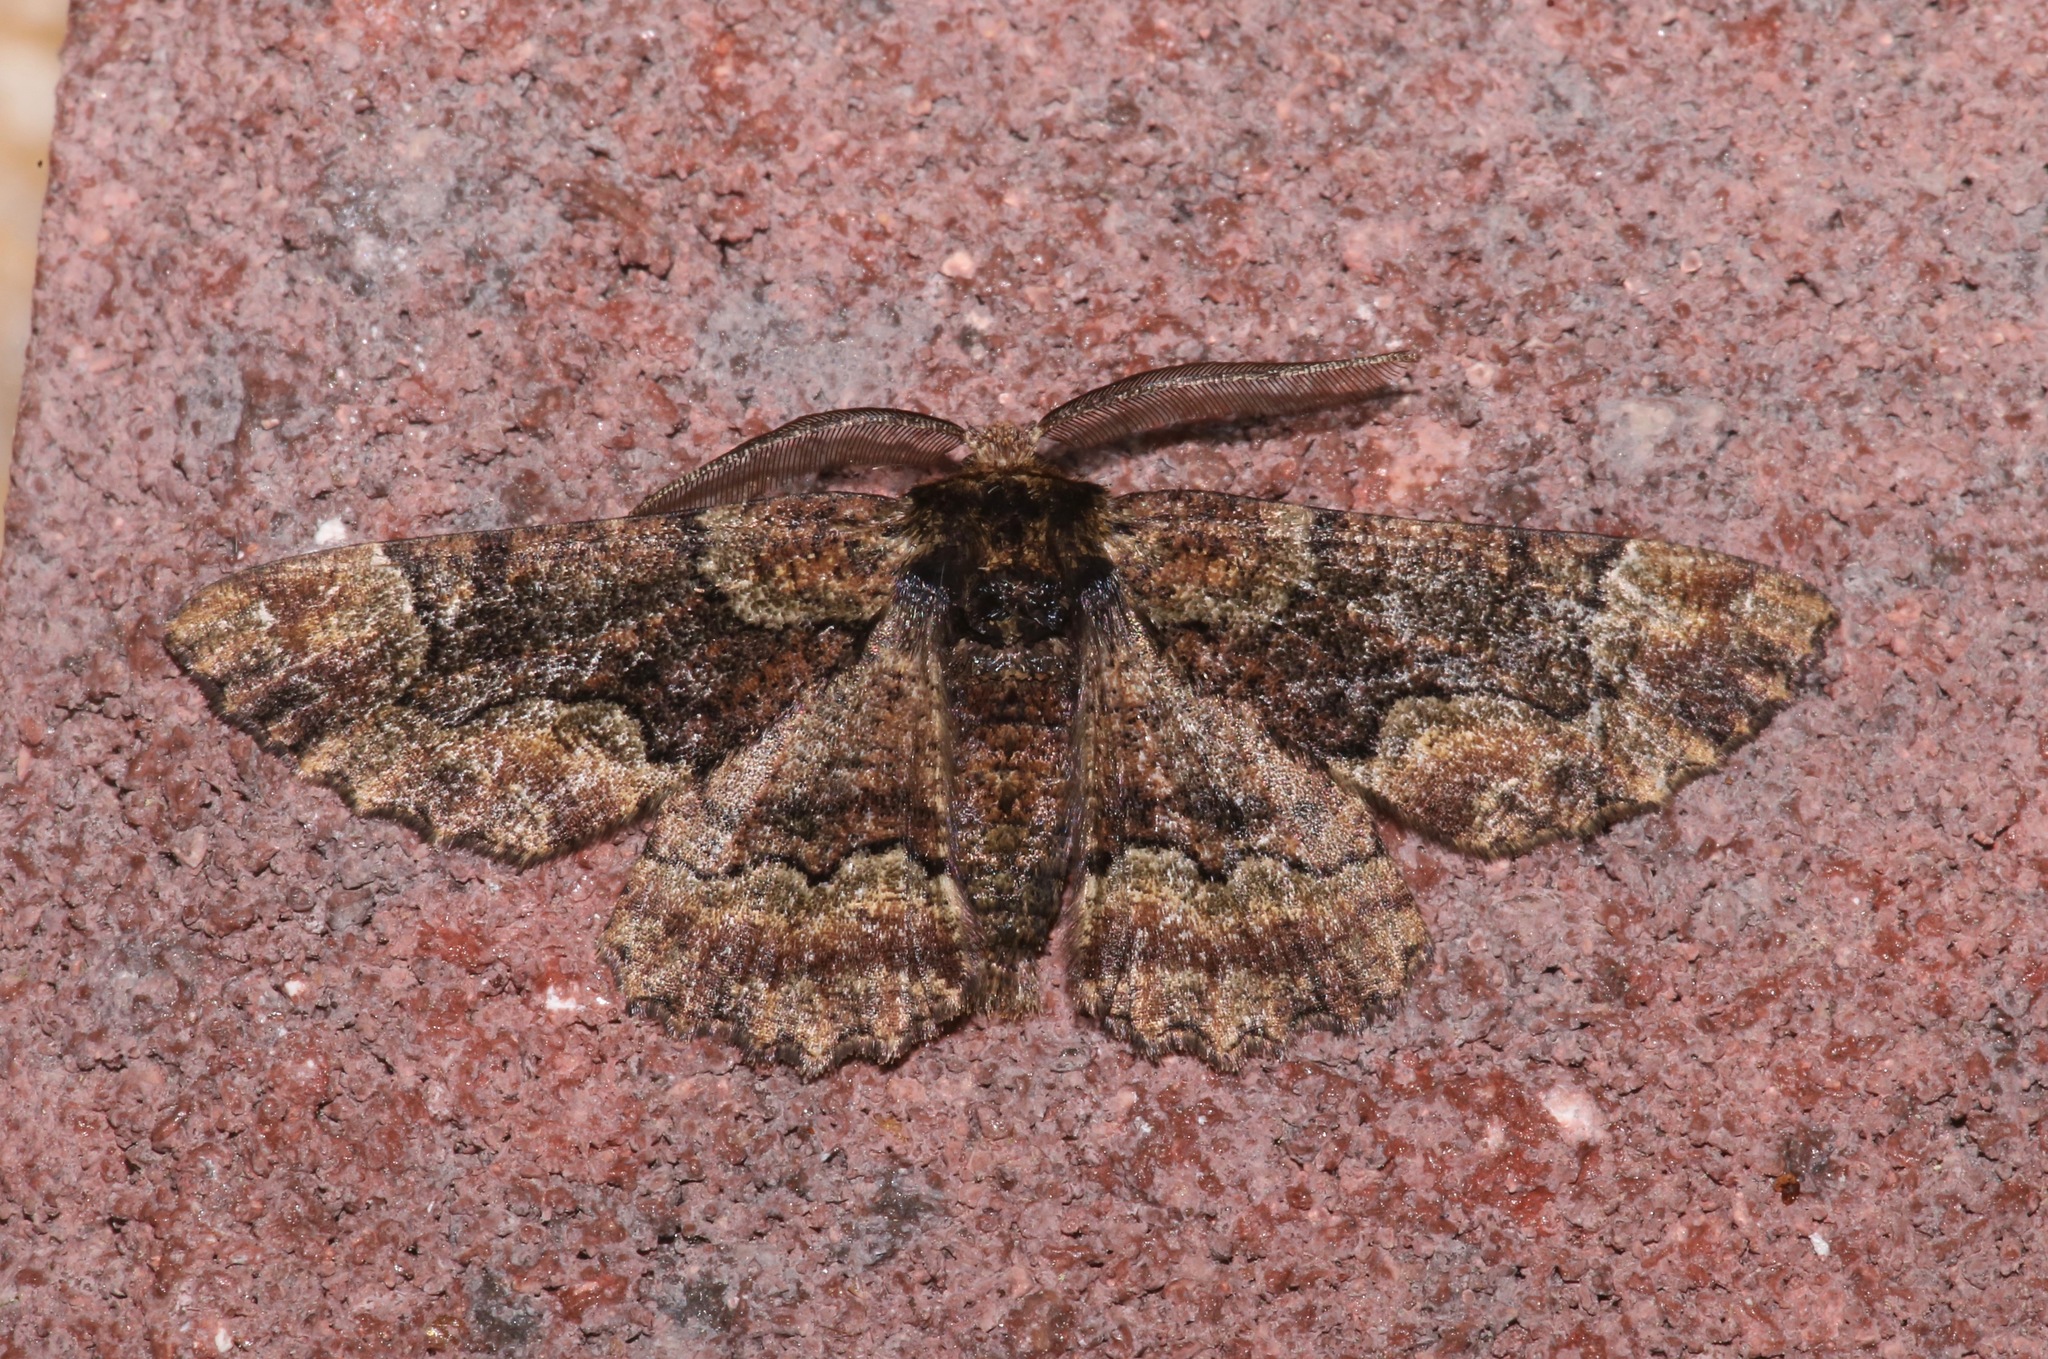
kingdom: Animalia
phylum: Arthropoda
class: Insecta
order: Lepidoptera
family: Geometridae
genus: Phaeoura
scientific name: Phaeoura quernaria
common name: Oak beauty
